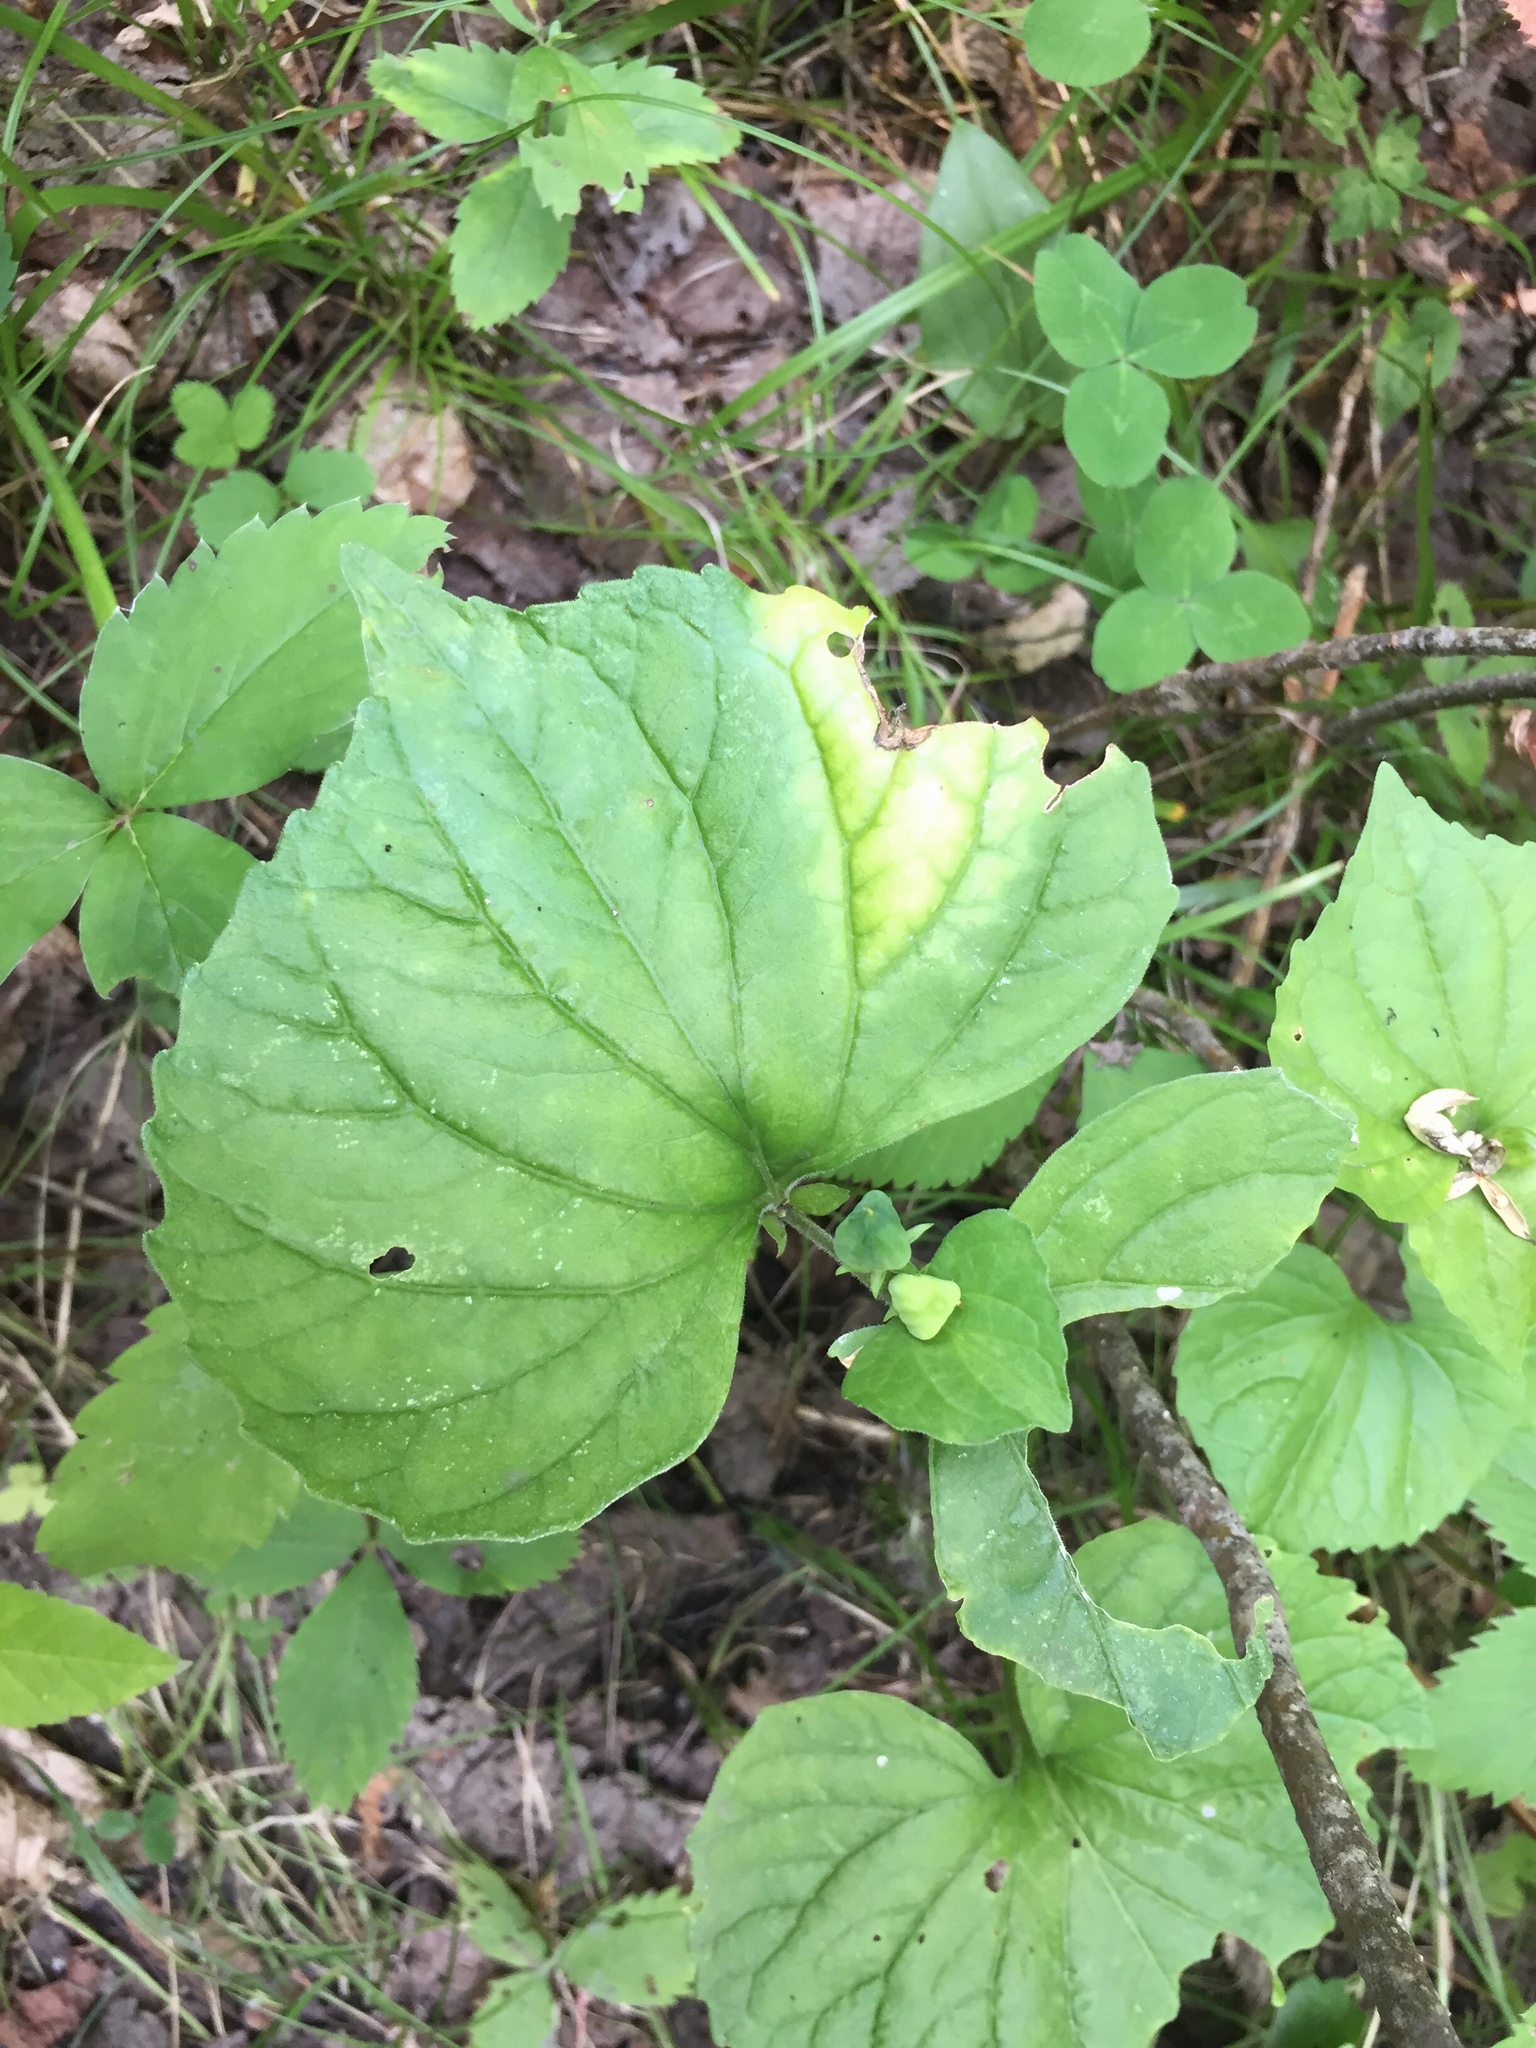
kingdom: Plantae
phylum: Tracheophyta
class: Magnoliopsida
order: Malpighiales
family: Violaceae
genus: Viola
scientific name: Viola eriocarpa
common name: Smooth yellow violet
